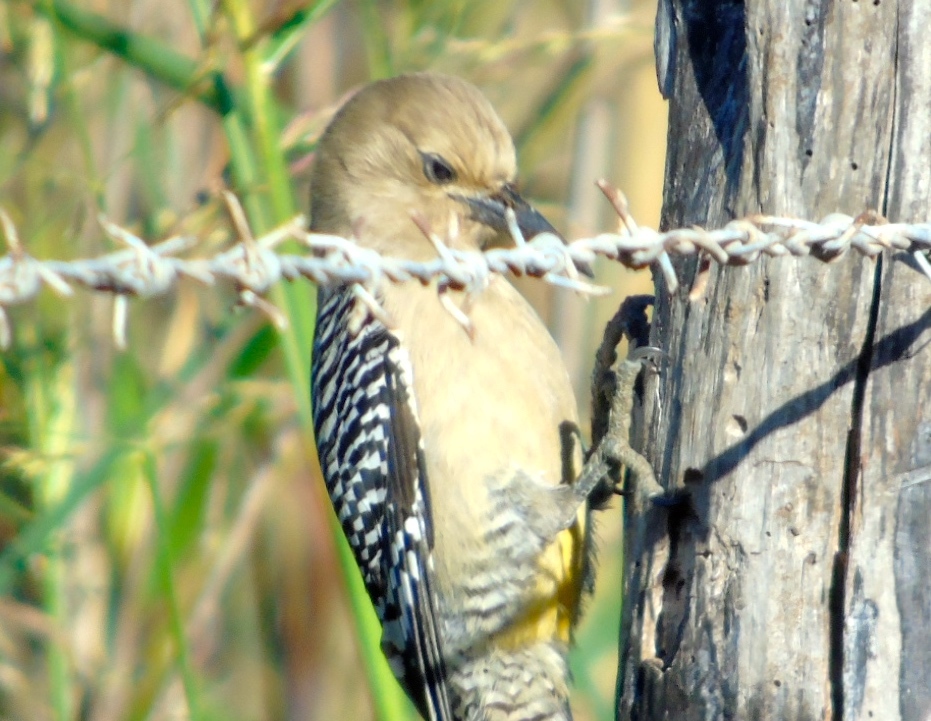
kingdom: Animalia
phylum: Chordata
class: Aves
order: Piciformes
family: Picidae
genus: Melanerpes
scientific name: Melanerpes uropygialis
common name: Gila woodpecker
